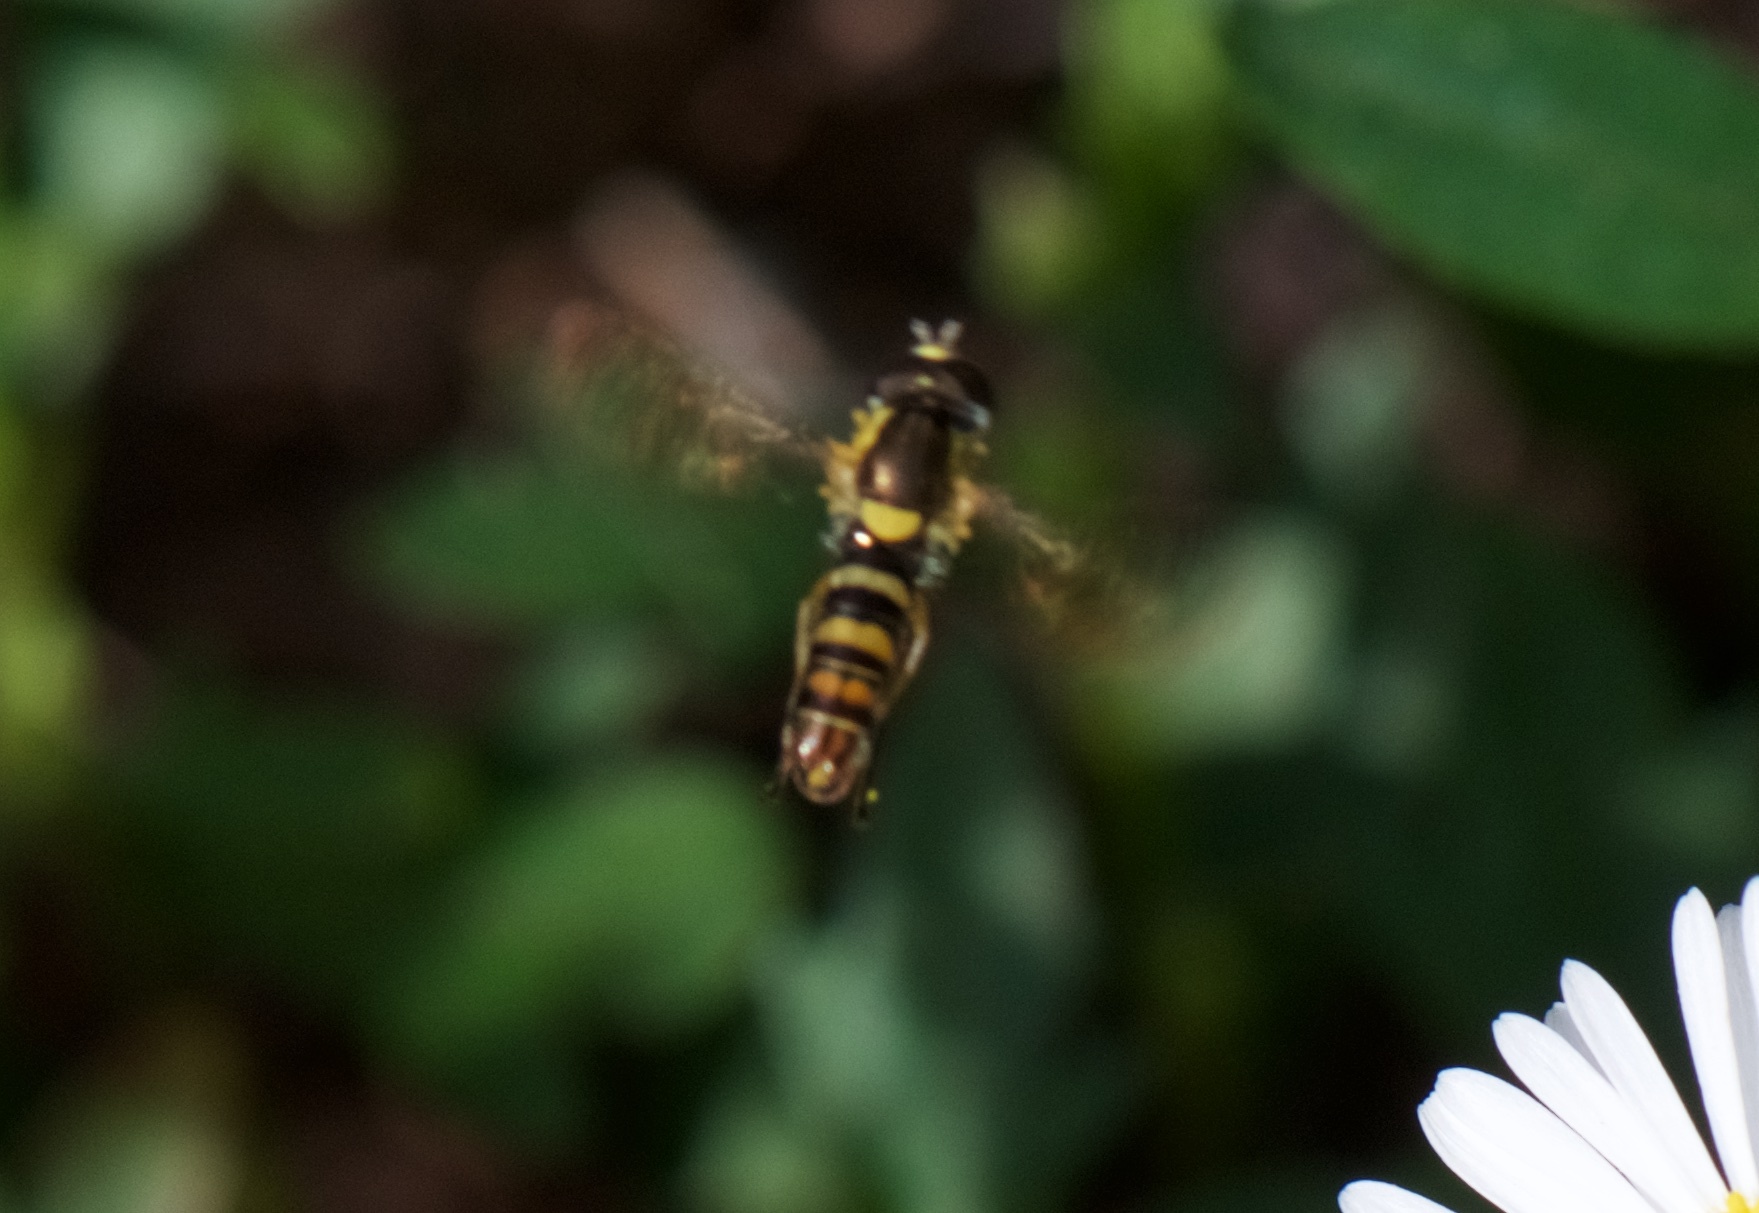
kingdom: Animalia
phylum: Arthropoda
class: Insecta
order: Diptera
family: Syrphidae
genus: Sphaerophoria
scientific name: Sphaerophoria sulphuripes
